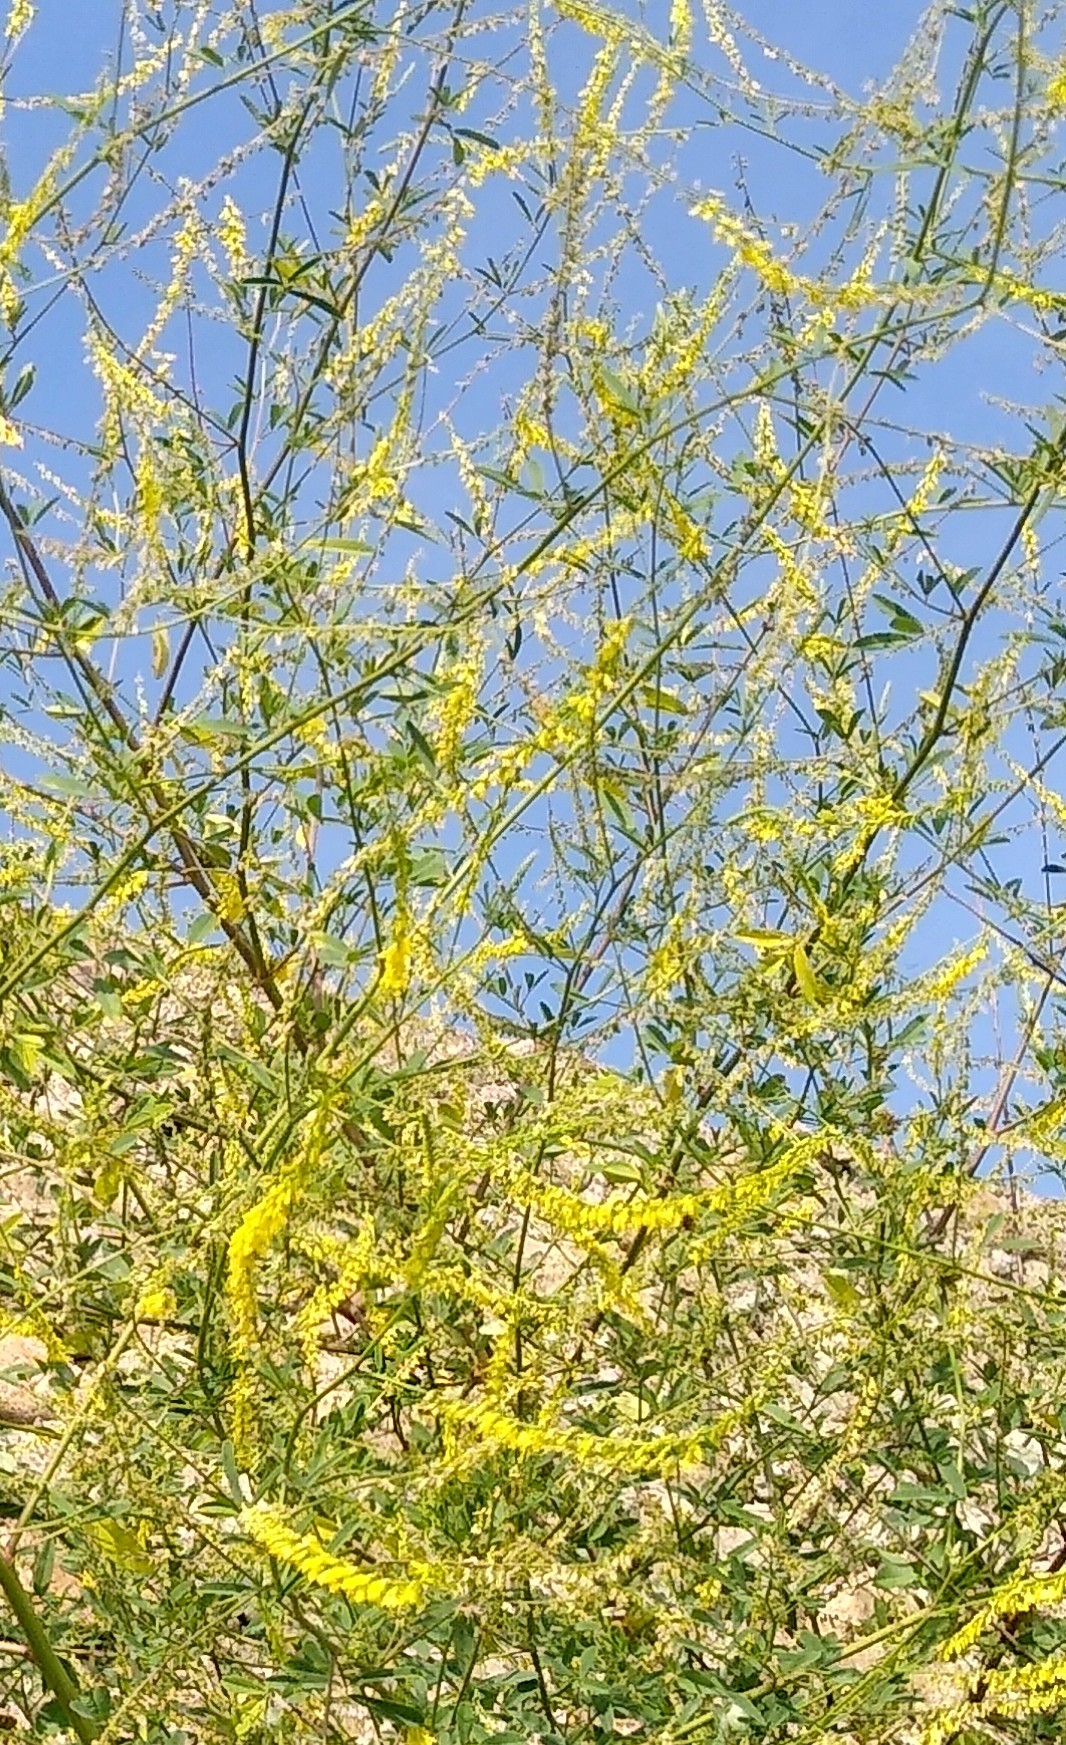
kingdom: Plantae
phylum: Tracheophyta
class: Magnoliopsida
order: Fabales
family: Fabaceae
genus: Melilotus
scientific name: Melilotus officinalis
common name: Sweetclover
